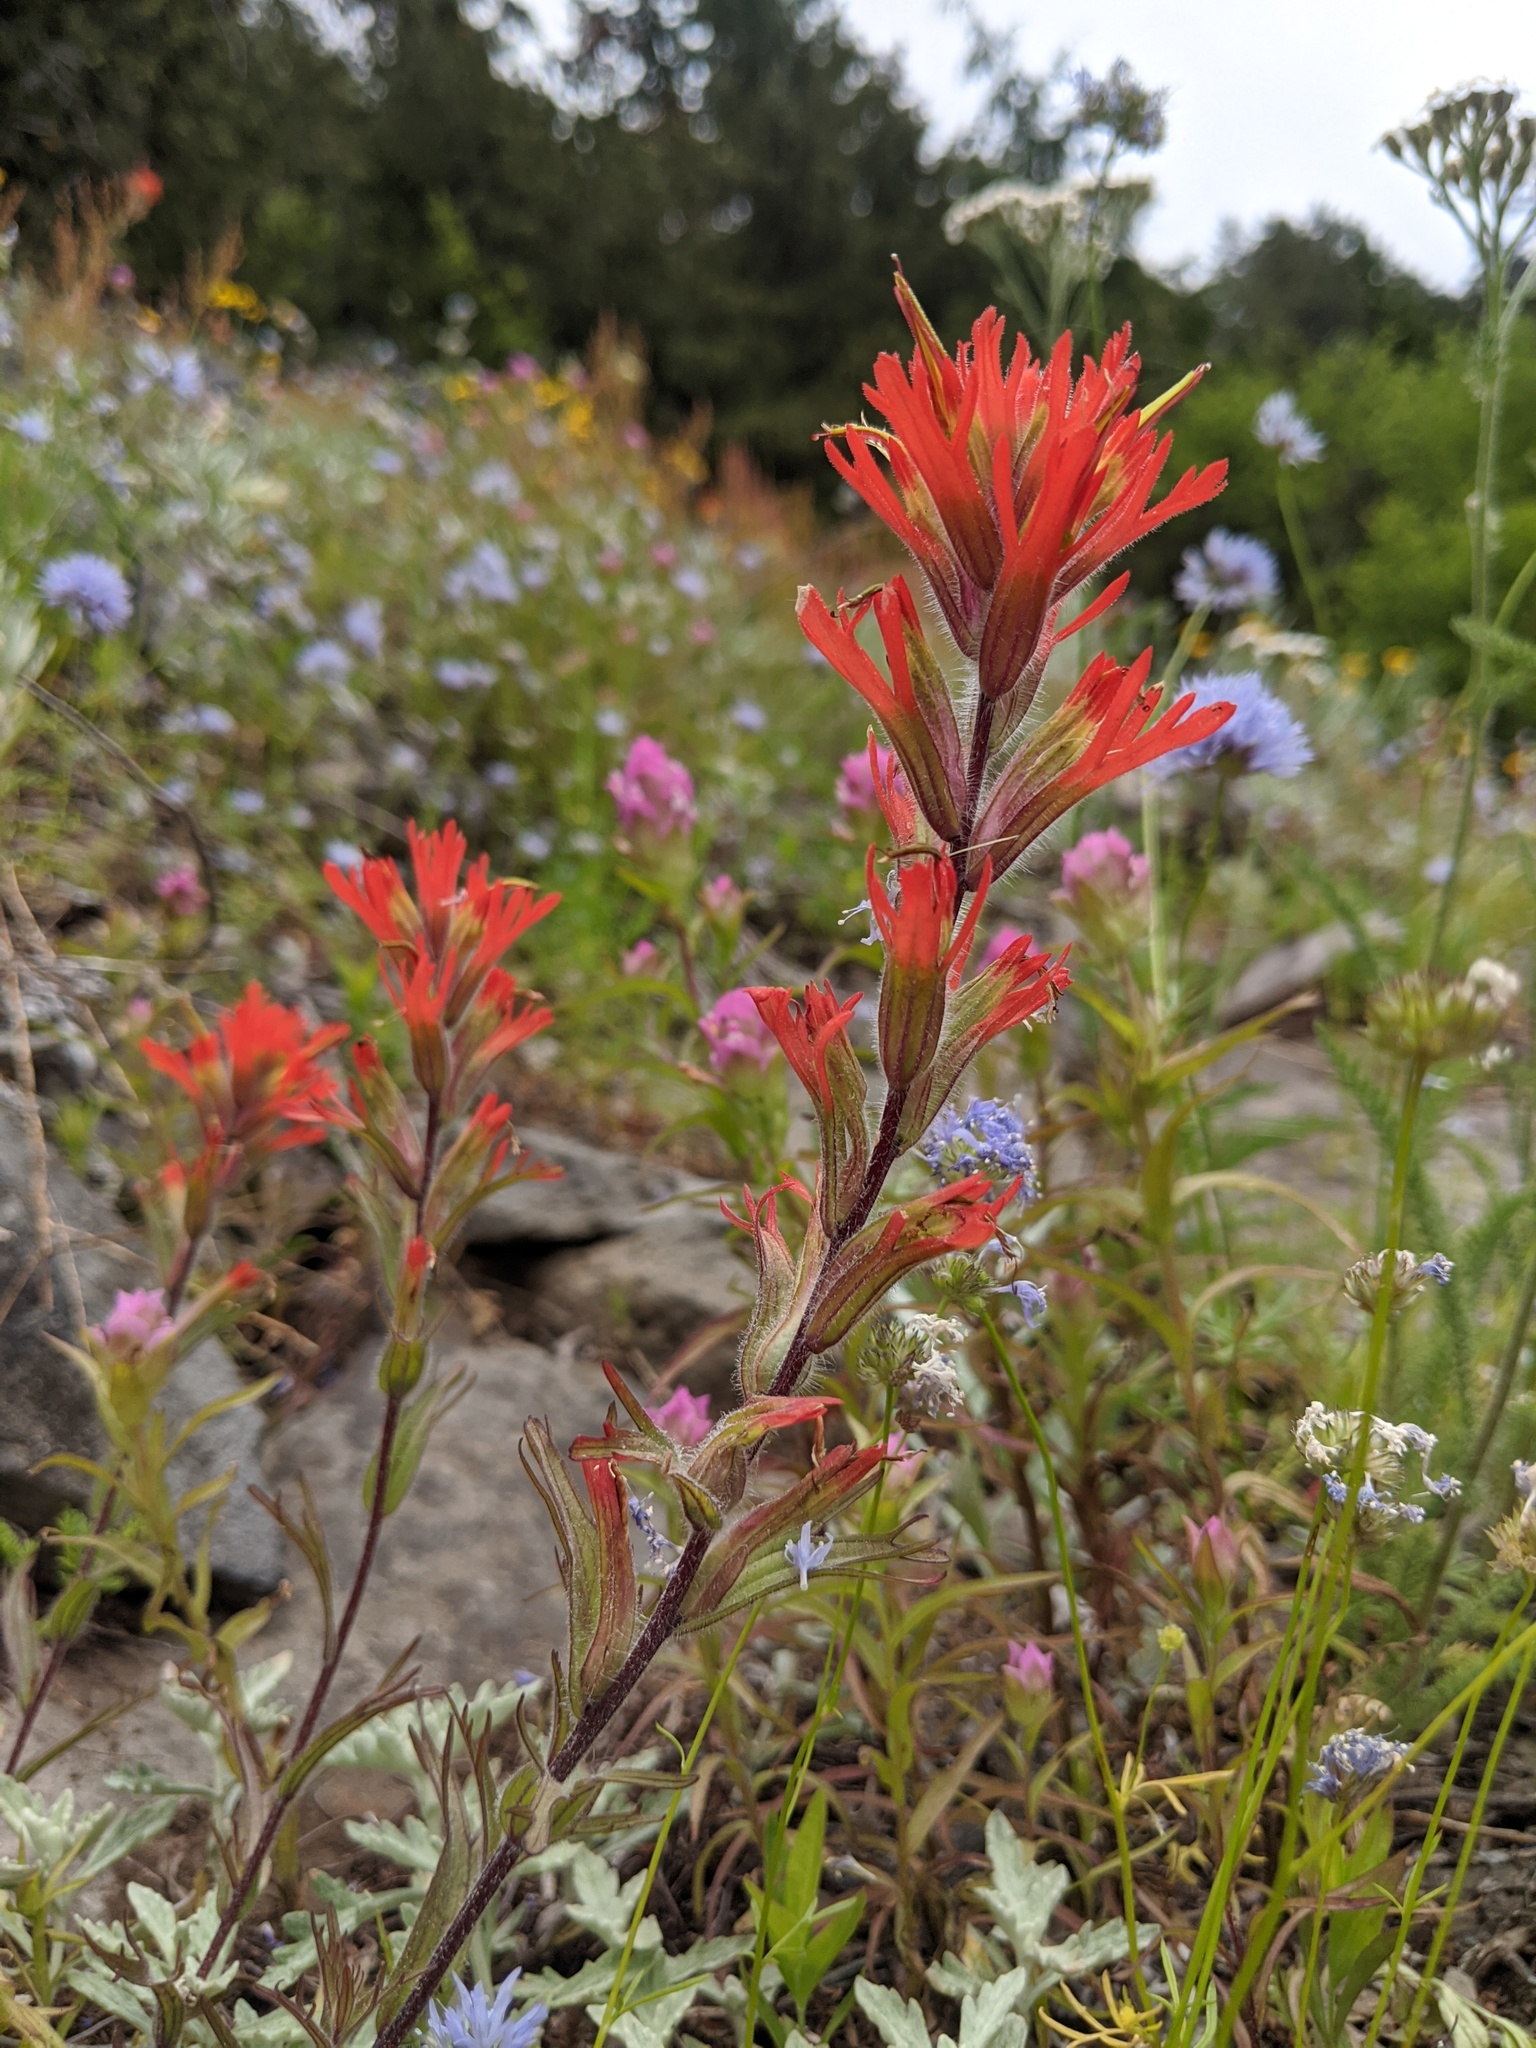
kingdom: Plantae
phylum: Tracheophyta
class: Magnoliopsida
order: Lamiales
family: Orobanchaceae
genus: Castilleja
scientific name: Castilleja hispida
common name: Bristly paintbrush
